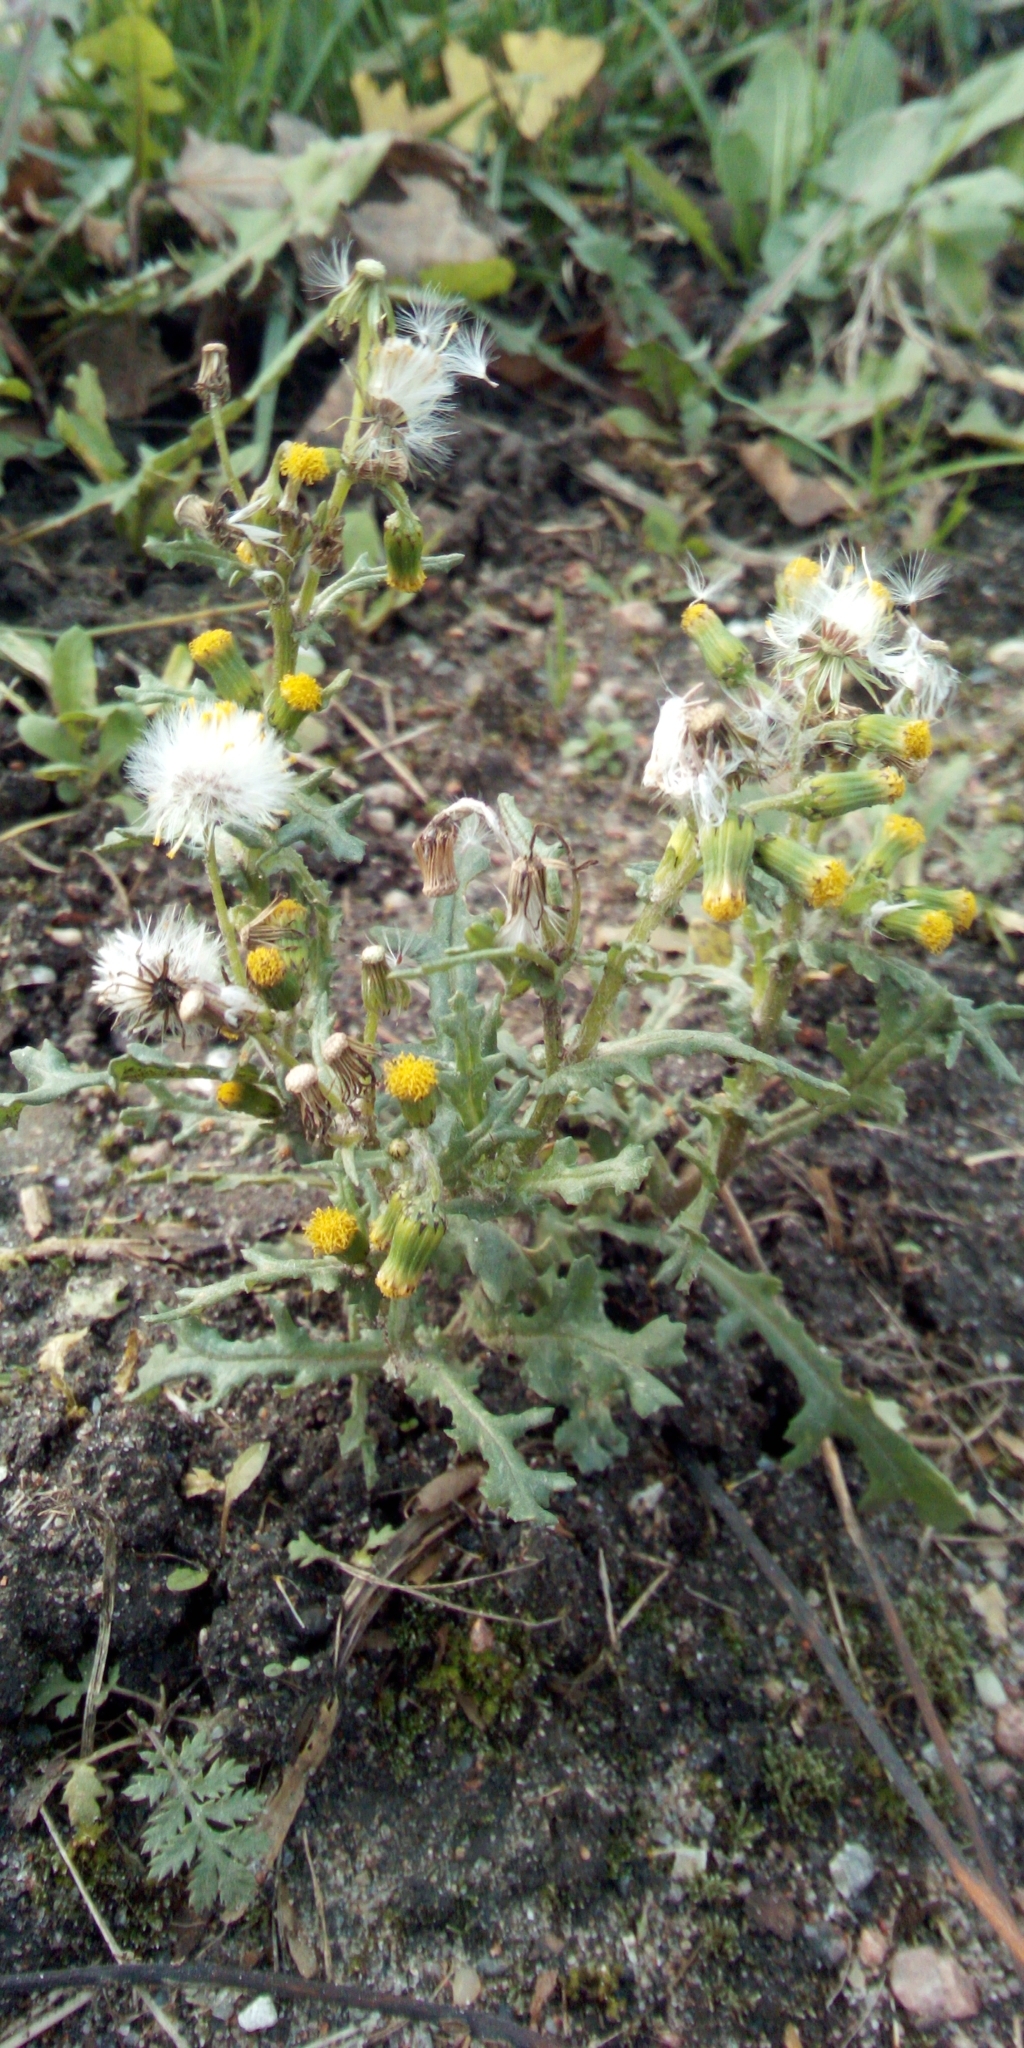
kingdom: Plantae
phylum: Tracheophyta
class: Magnoliopsida
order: Asterales
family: Asteraceae
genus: Senecio
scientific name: Senecio vulgaris
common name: Old-man-in-the-spring
